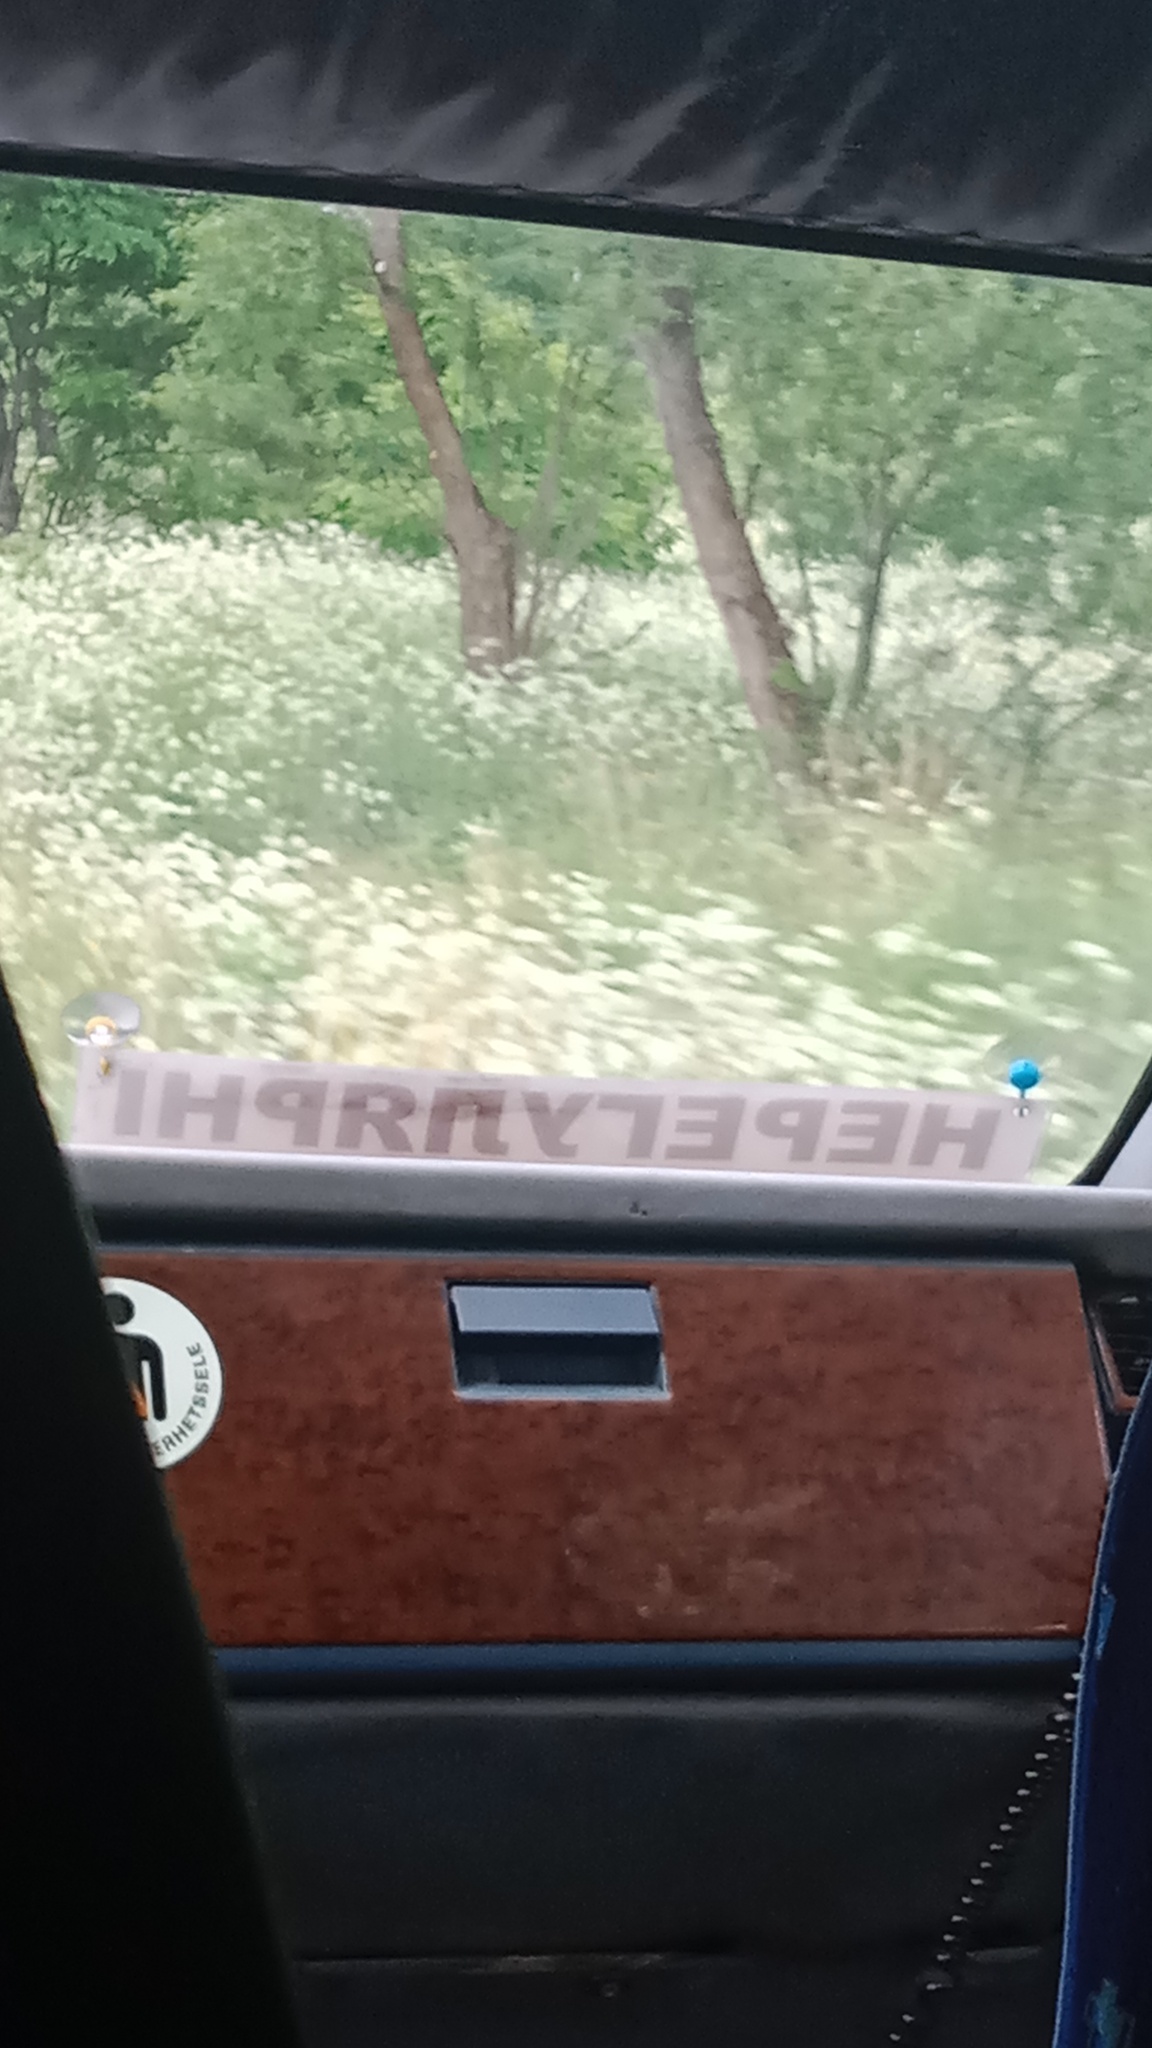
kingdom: Plantae
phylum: Tracheophyta
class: Magnoliopsida
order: Apiales
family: Apiaceae
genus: Heracleum
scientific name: Heracleum sosnowskyi
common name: Sosnowsky's hogweed
